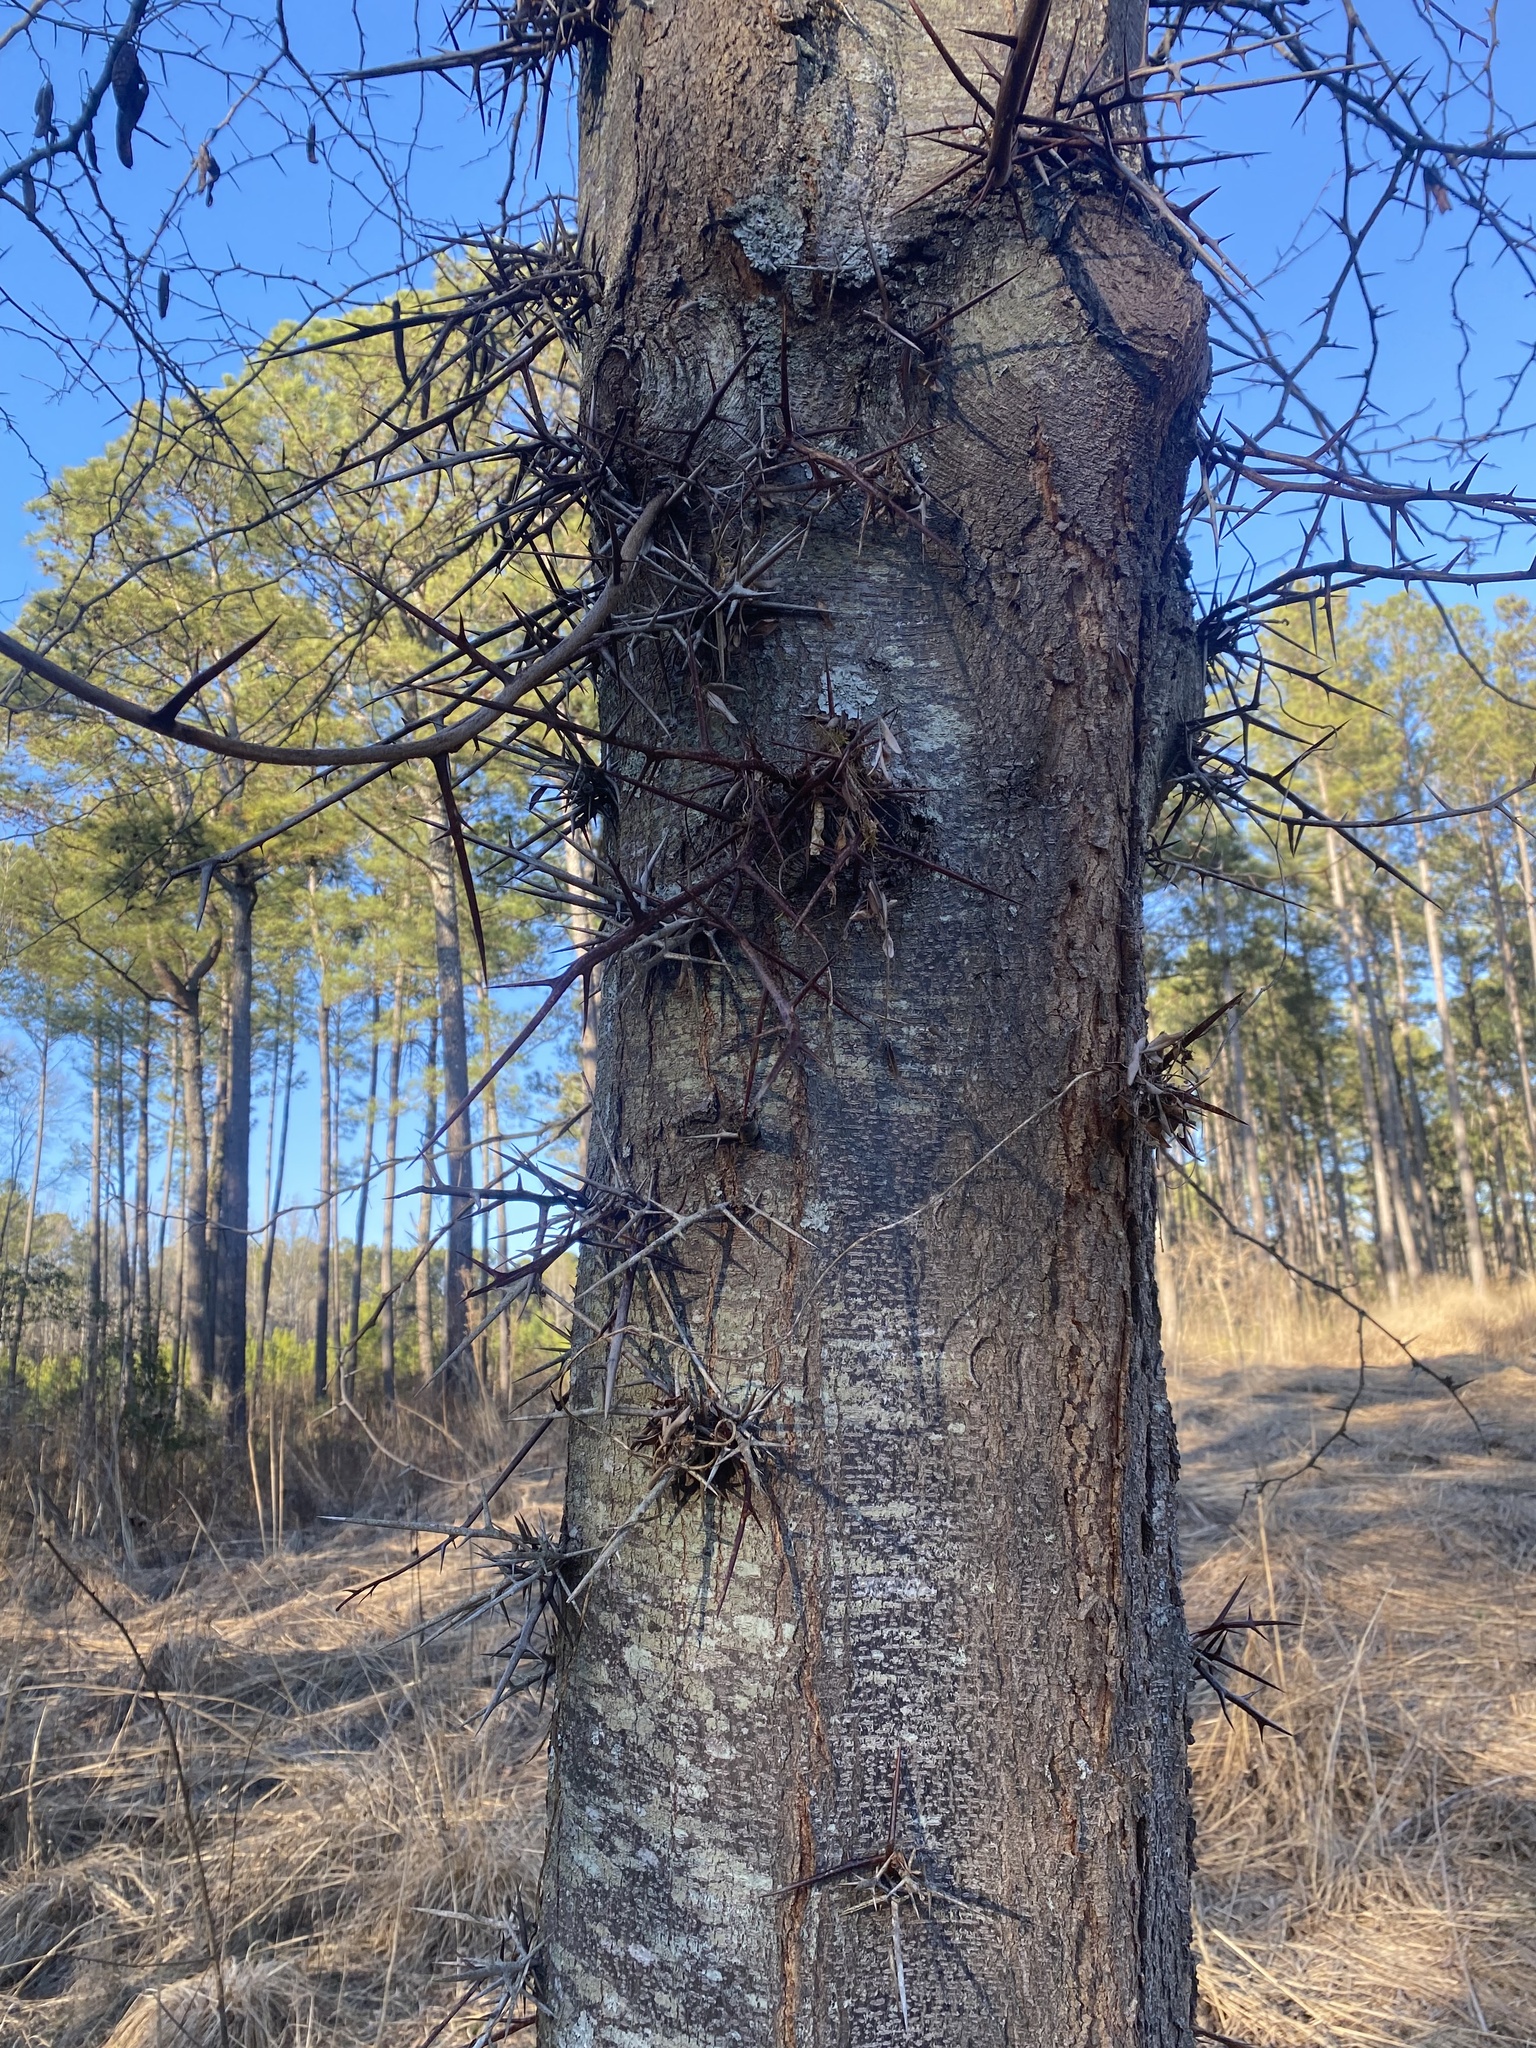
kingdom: Plantae
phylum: Tracheophyta
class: Magnoliopsida
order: Fabales
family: Fabaceae
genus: Gleditsia
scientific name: Gleditsia triacanthos
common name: Common honeylocust
